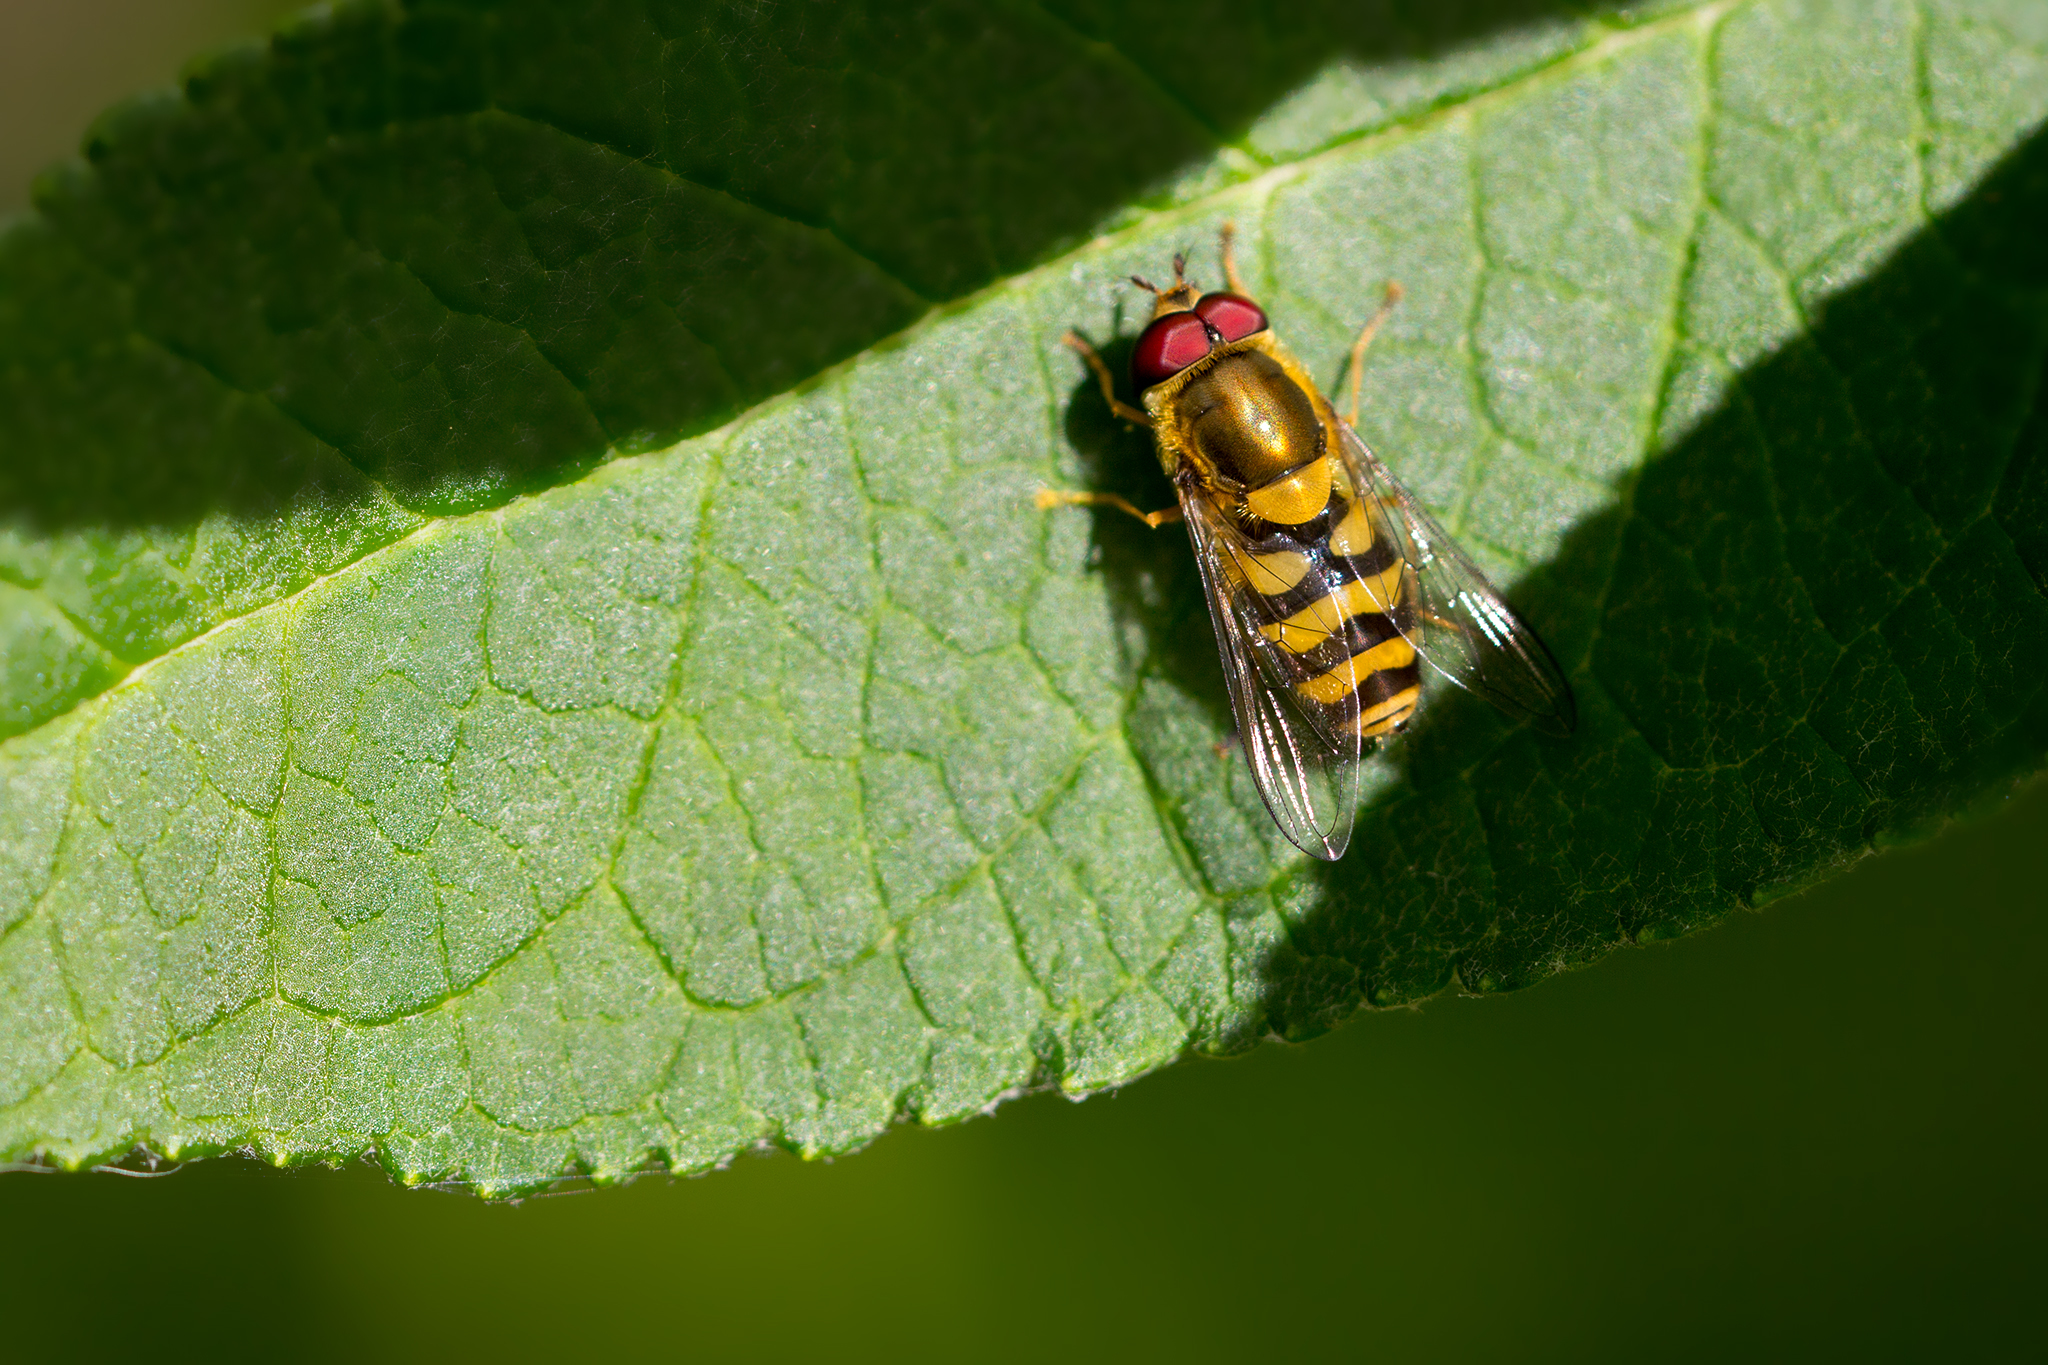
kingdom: Animalia
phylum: Arthropoda
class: Insecta
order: Diptera
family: Syrphidae
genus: Syrphus
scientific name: Syrphus
